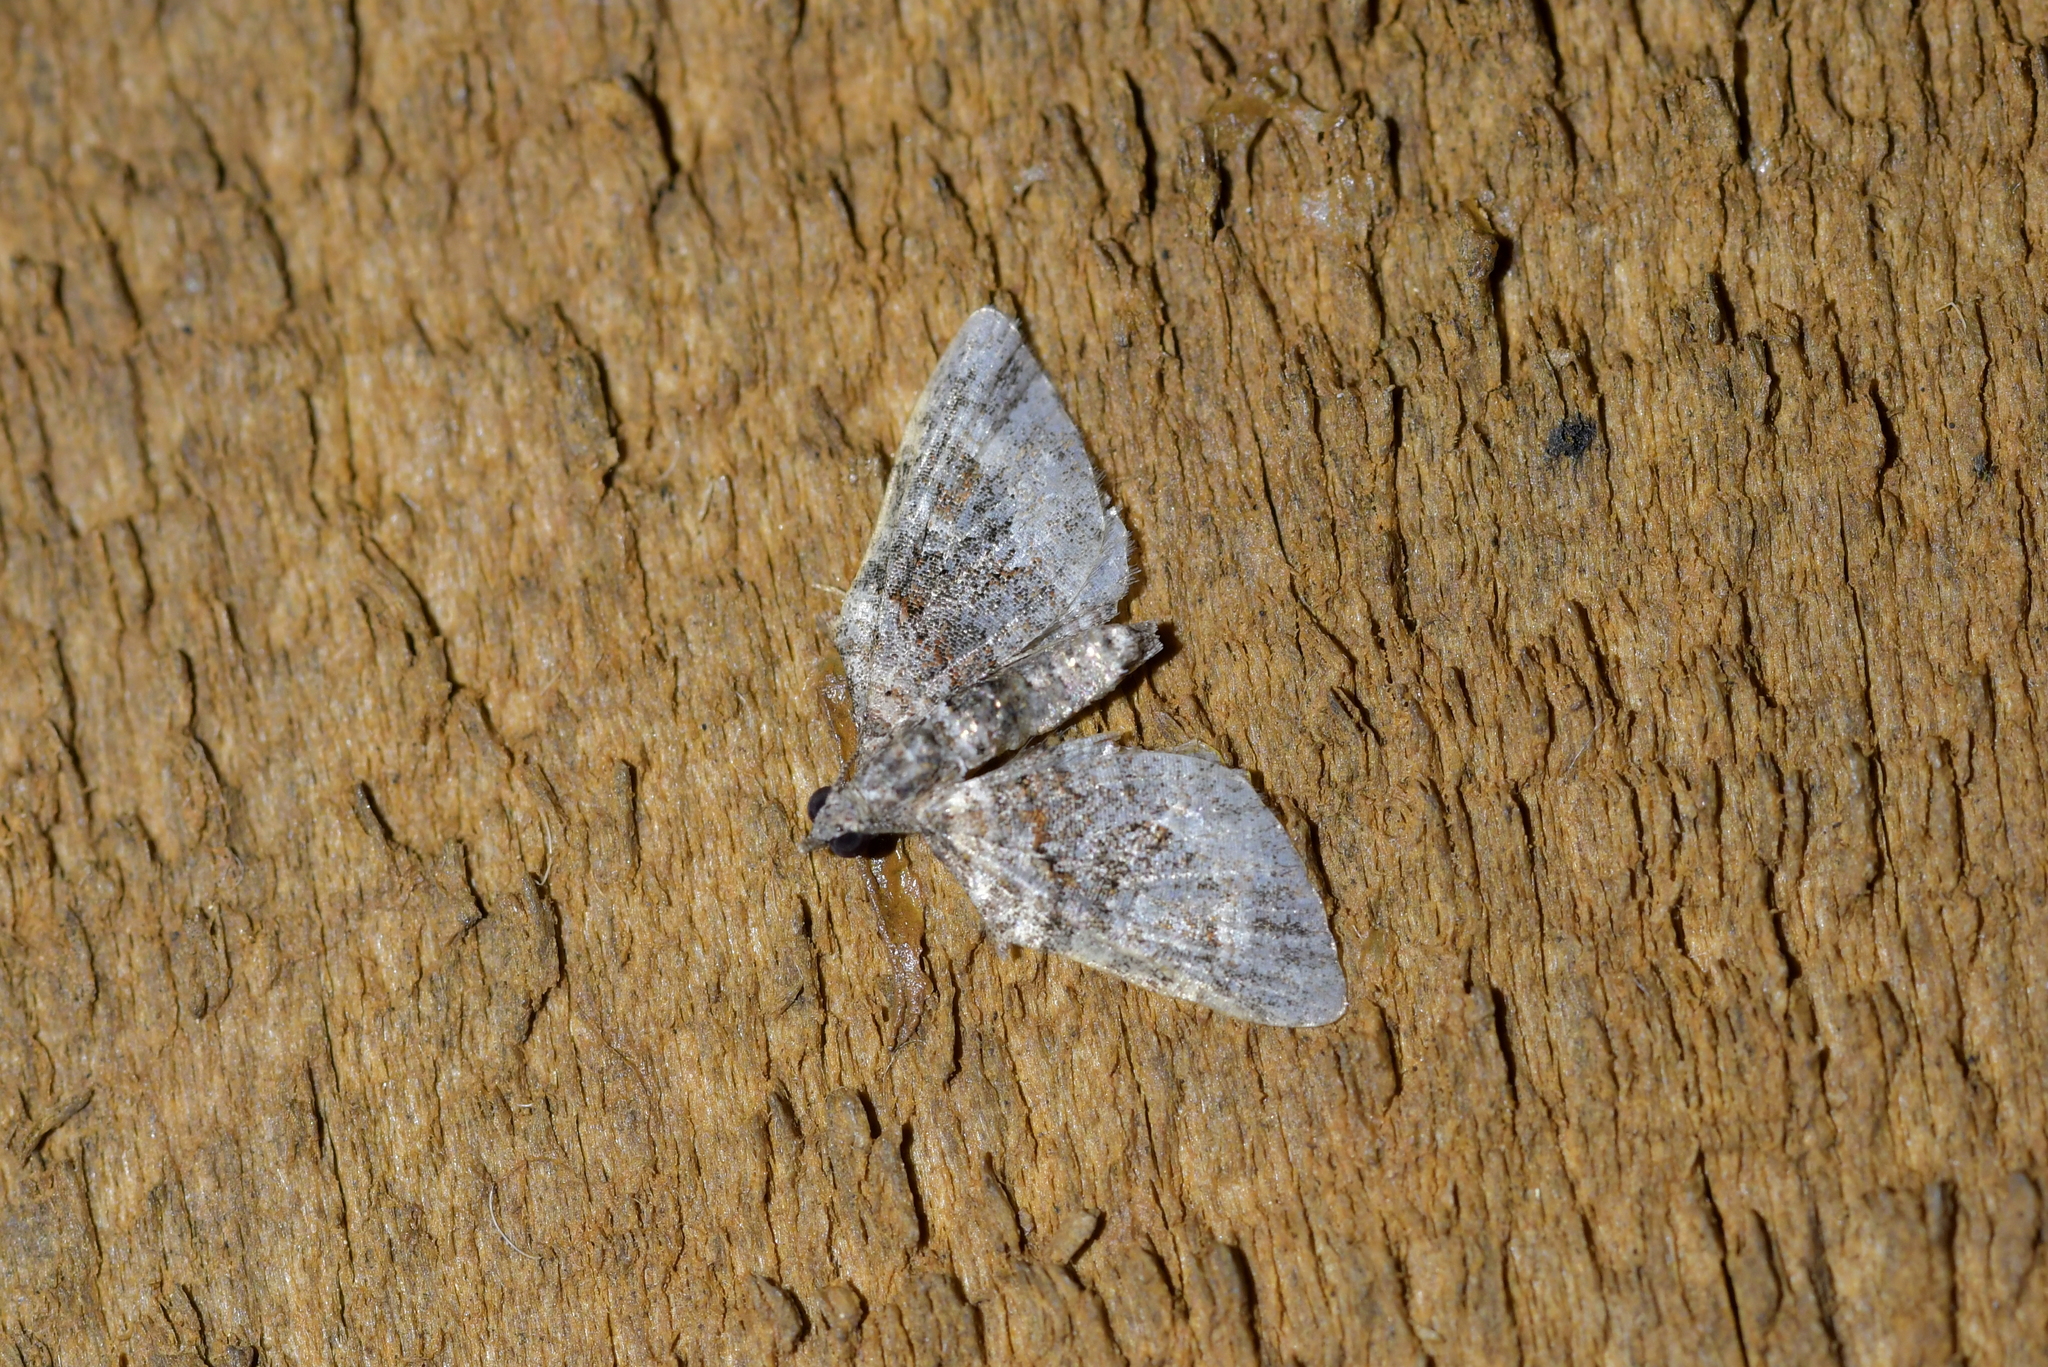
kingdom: Animalia
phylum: Arthropoda
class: Insecta
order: Lepidoptera
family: Geometridae
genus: Phrissogonus
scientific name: Phrissogonus laticostata
